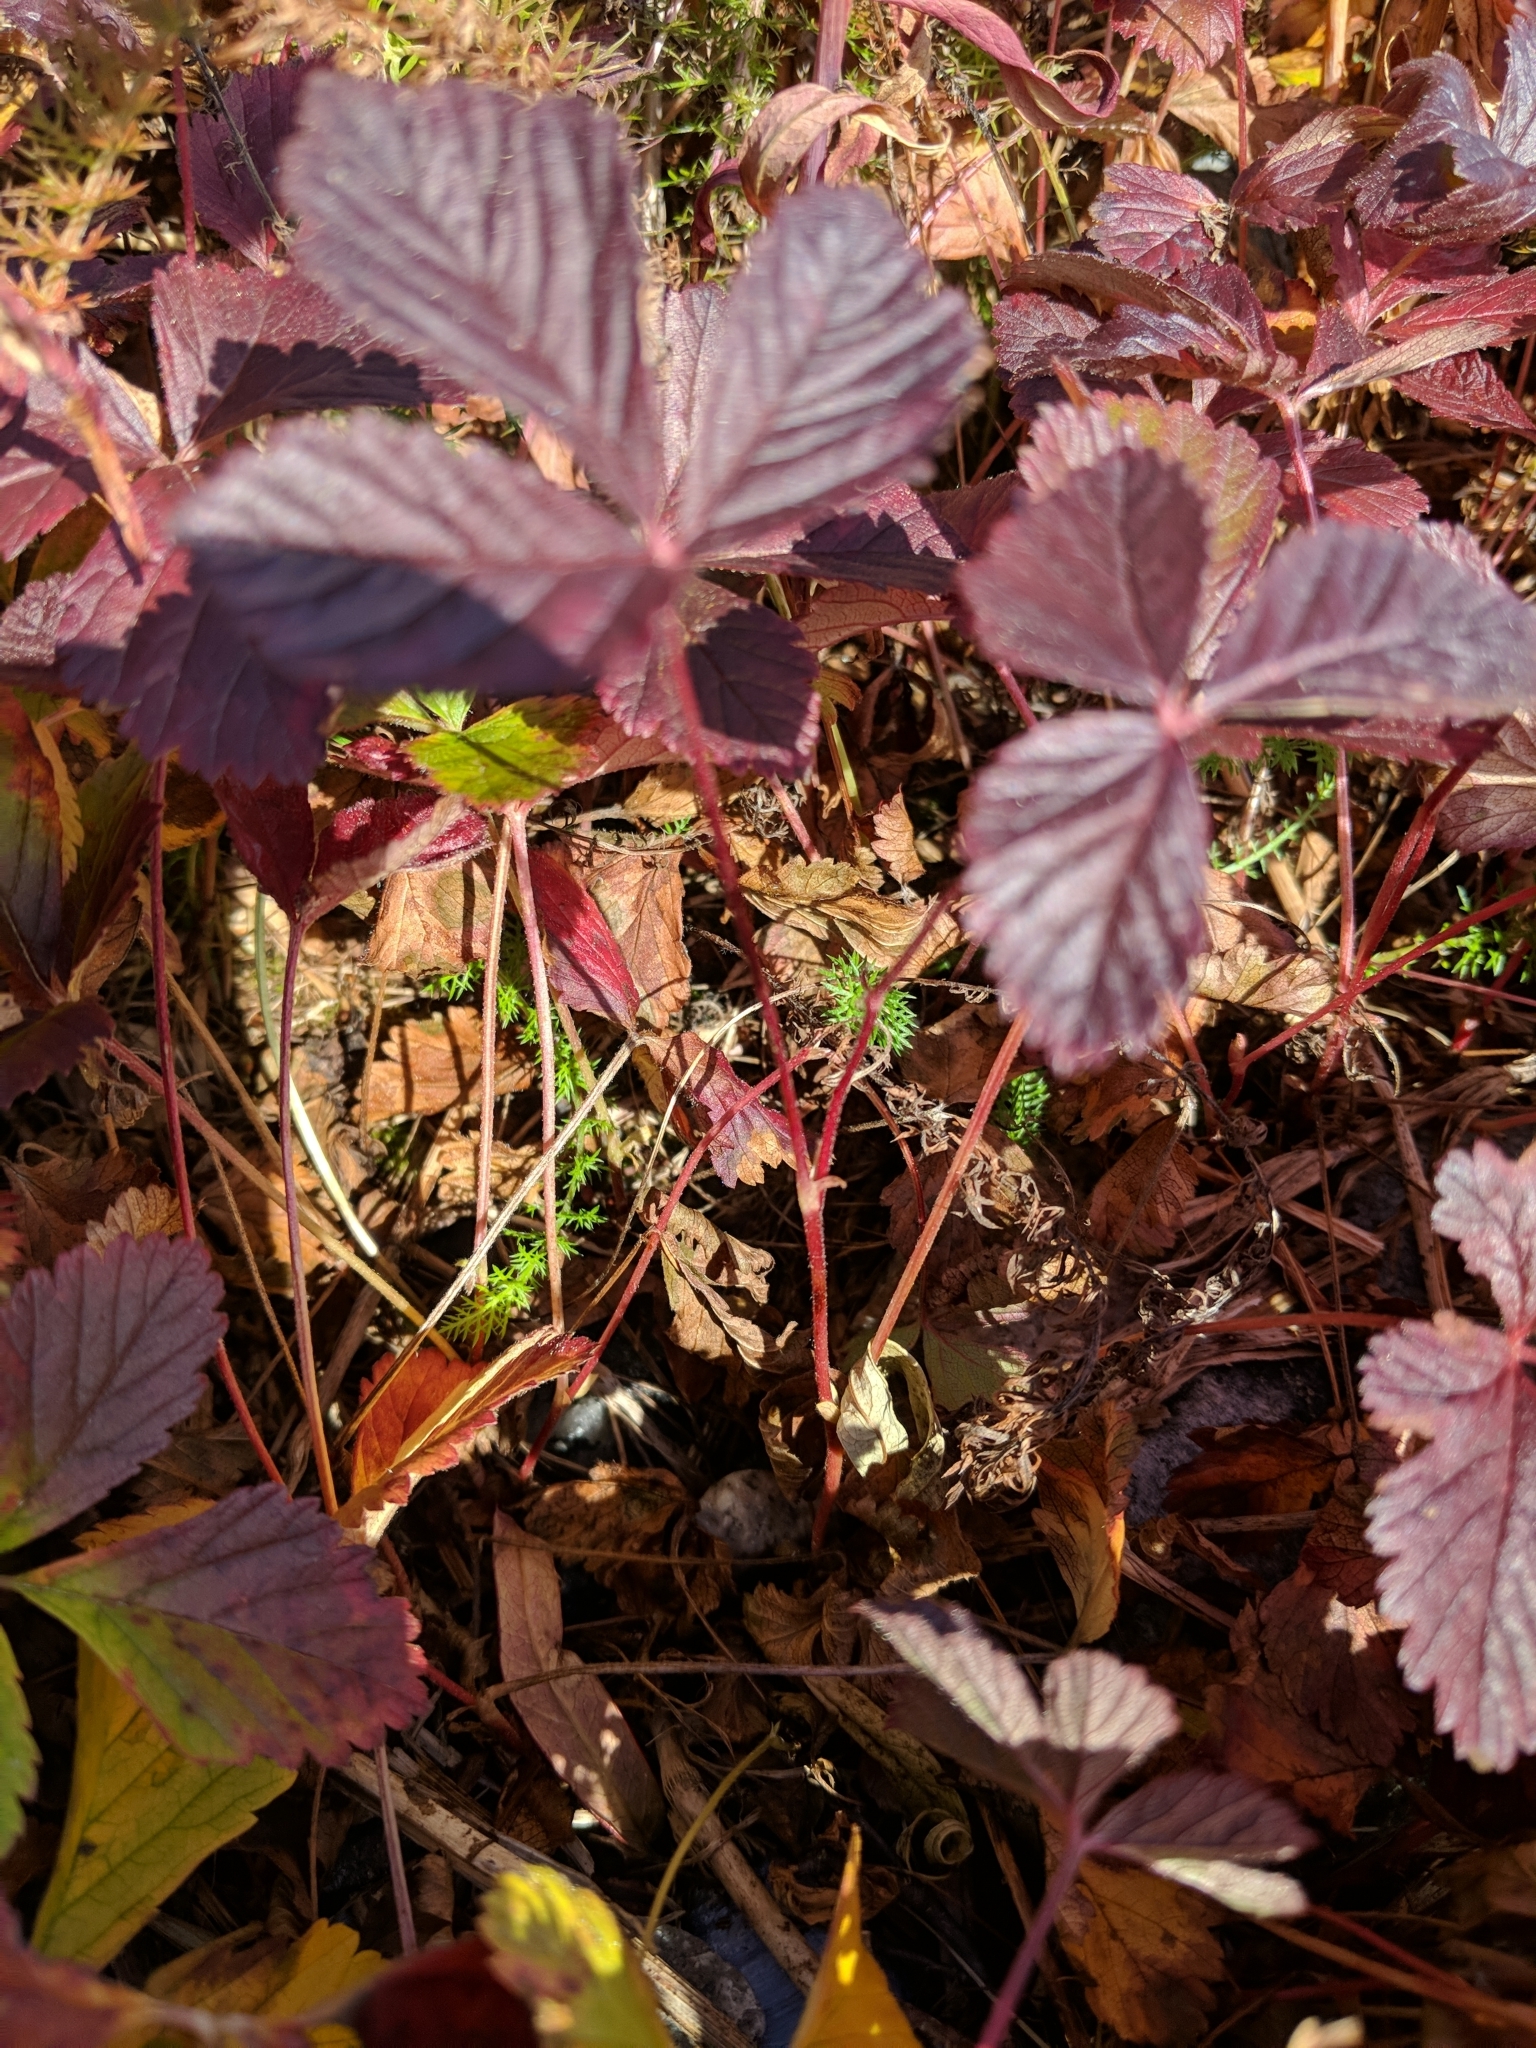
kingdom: Plantae
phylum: Tracheophyta
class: Magnoliopsida
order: Rosales
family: Rosaceae
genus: Rubus
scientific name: Rubus pubescens
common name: Dwarf raspberry
